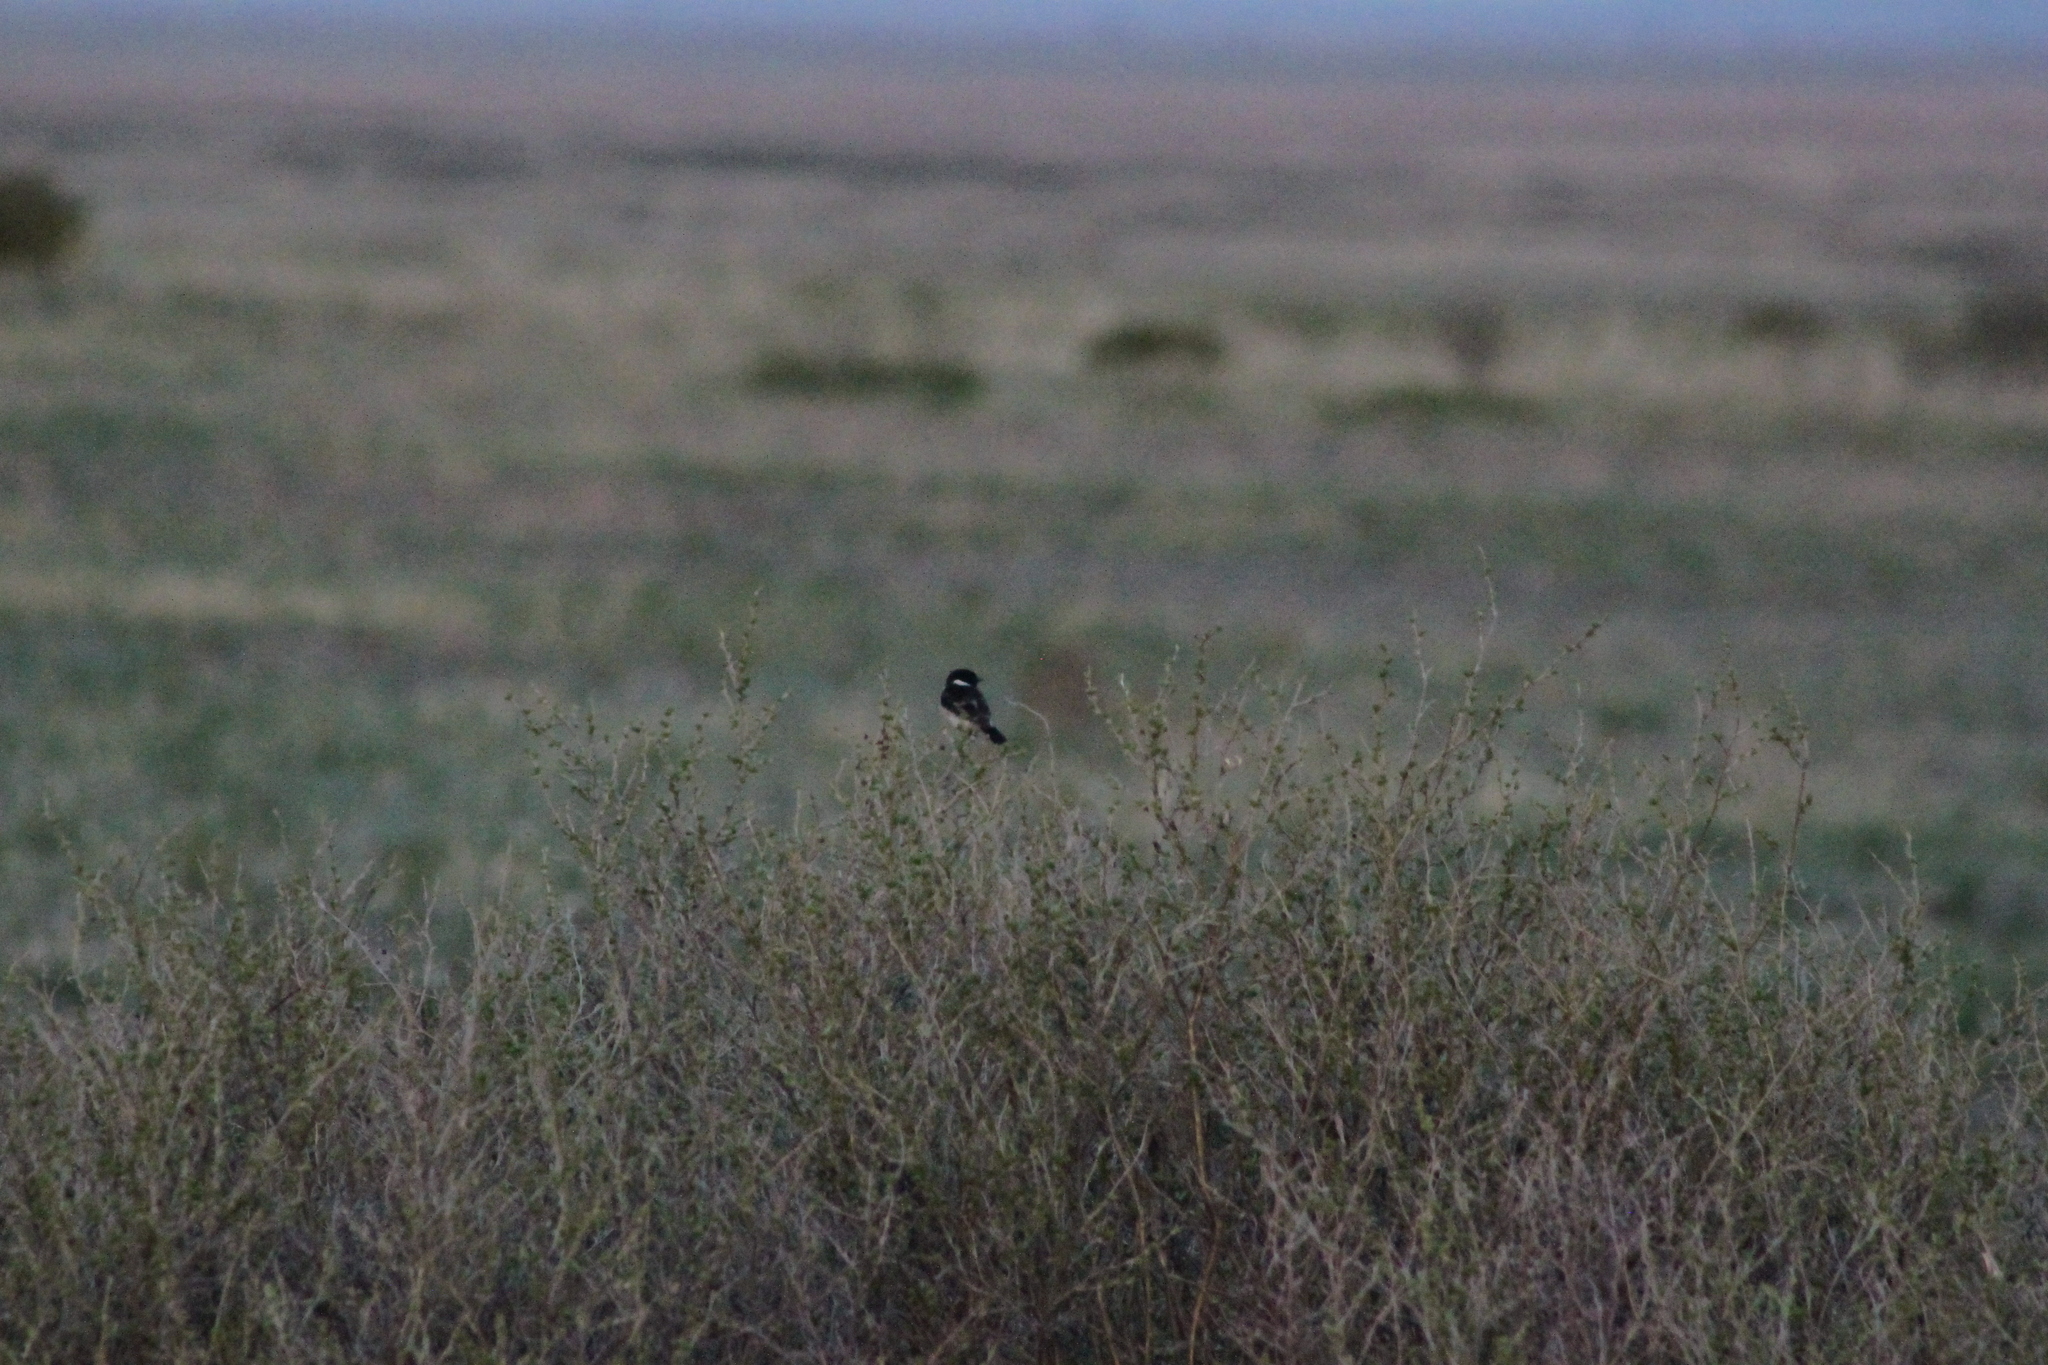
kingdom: Animalia
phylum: Chordata
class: Aves
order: Passeriformes
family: Muscicapidae
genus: Saxicola
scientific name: Saxicola maurus
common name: Siberian stonechat
